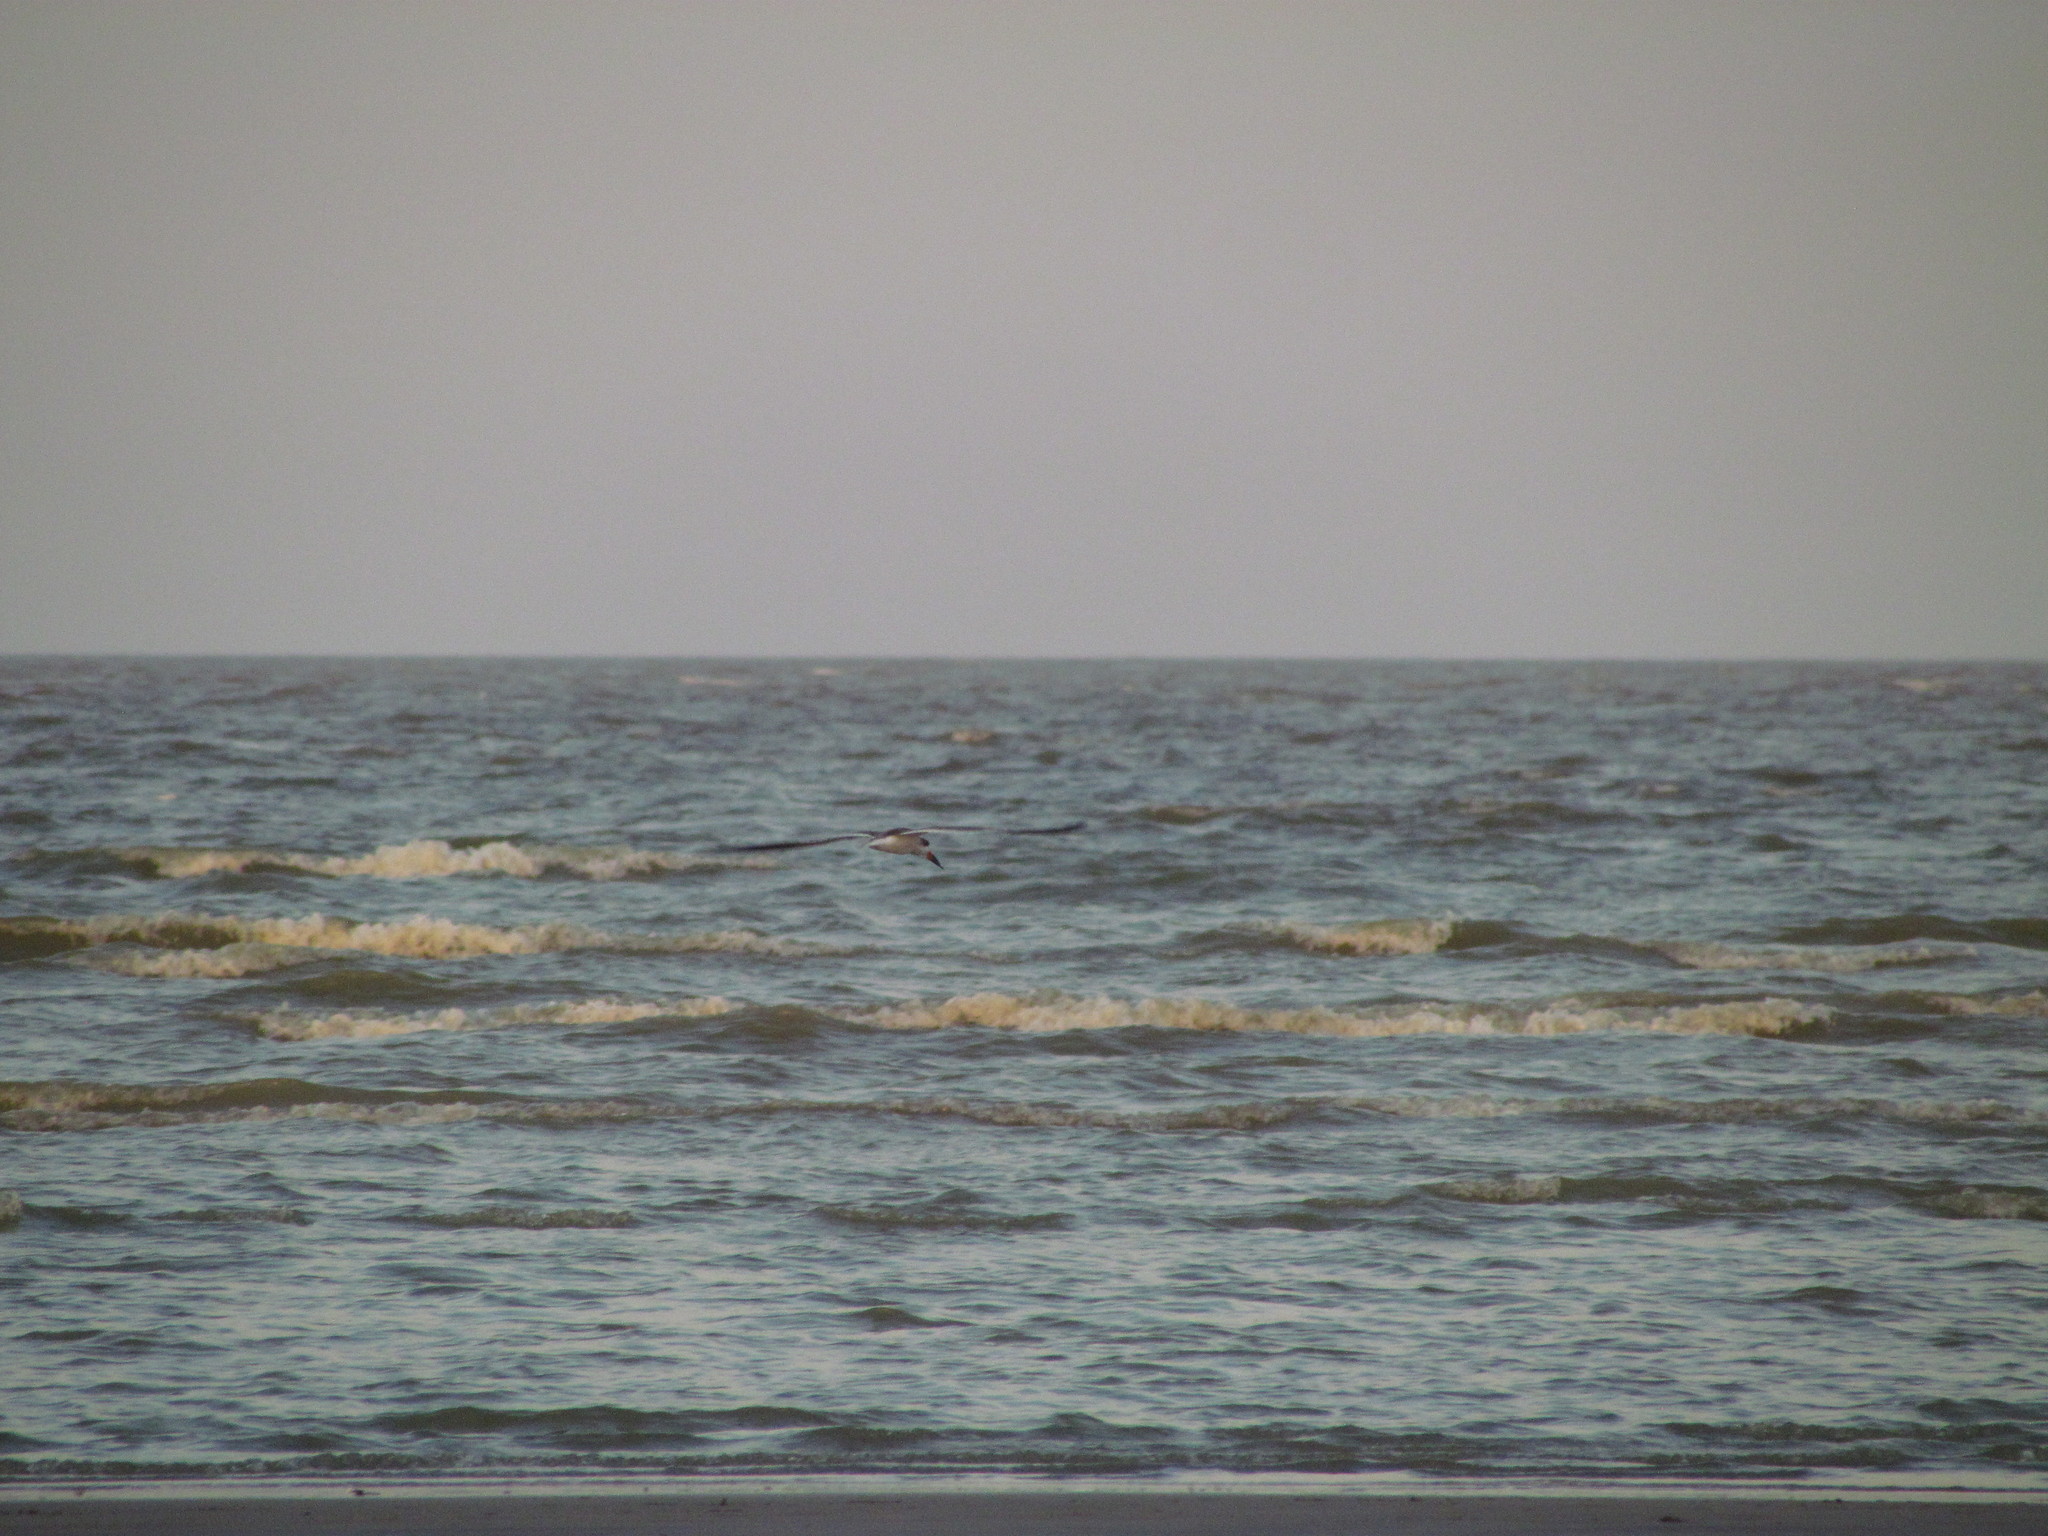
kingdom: Animalia
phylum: Chordata
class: Aves
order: Charadriiformes
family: Laridae
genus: Rynchops
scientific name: Rynchops niger
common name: Black skimmer
